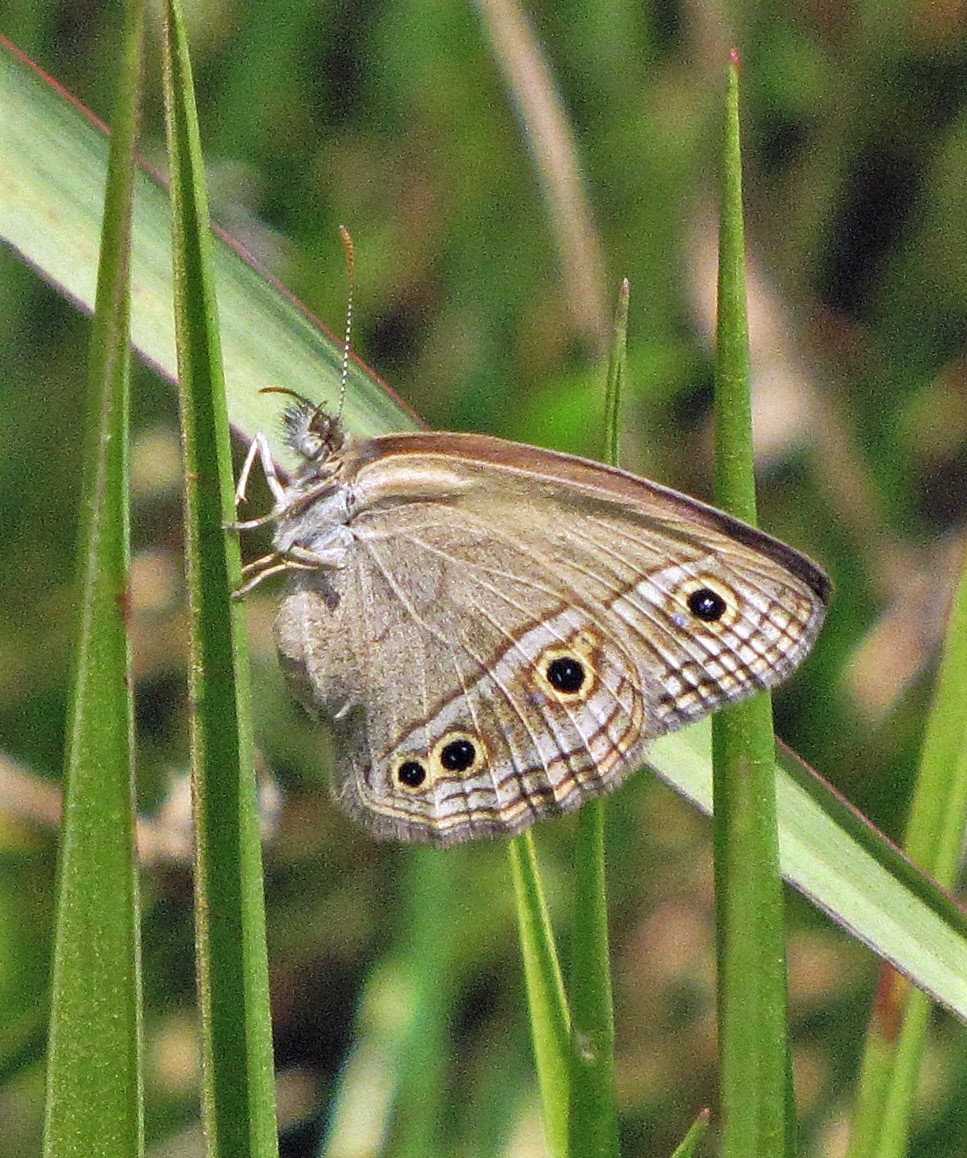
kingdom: Animalia
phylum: Arthropoda
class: Insecta
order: Lepidoptera
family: Nymphalidae
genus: Stegosatyrus
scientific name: Stegosatyrus periphas
